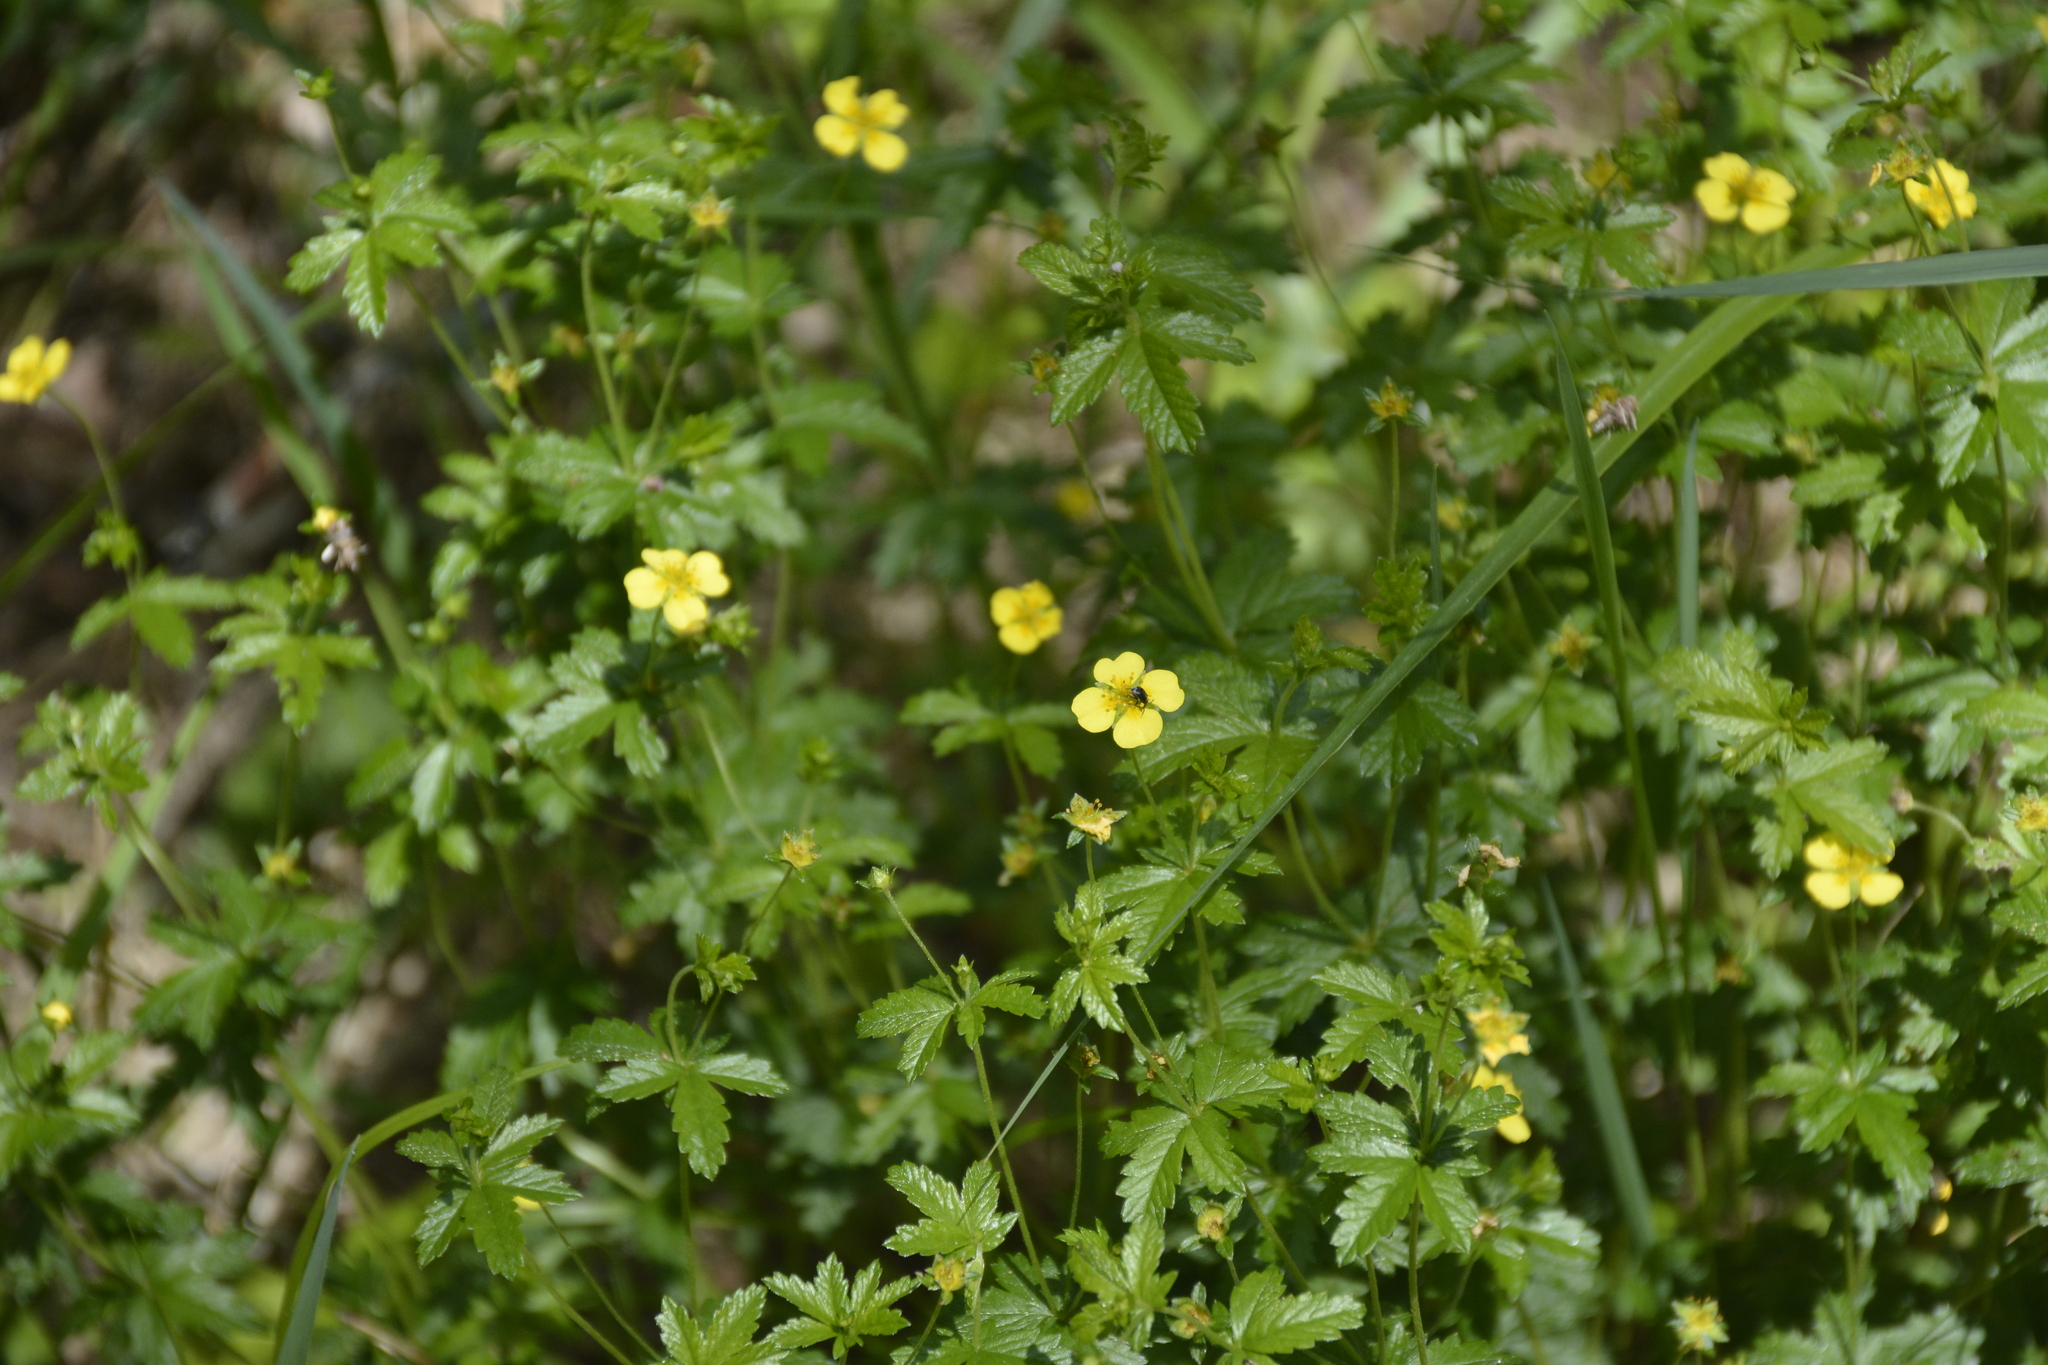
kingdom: Plantae
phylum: Tracheophyta
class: Magnoliopsida
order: Rosales
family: Rosaceae
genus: Potentilla
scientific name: Potentilla erecta
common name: Tormentil
